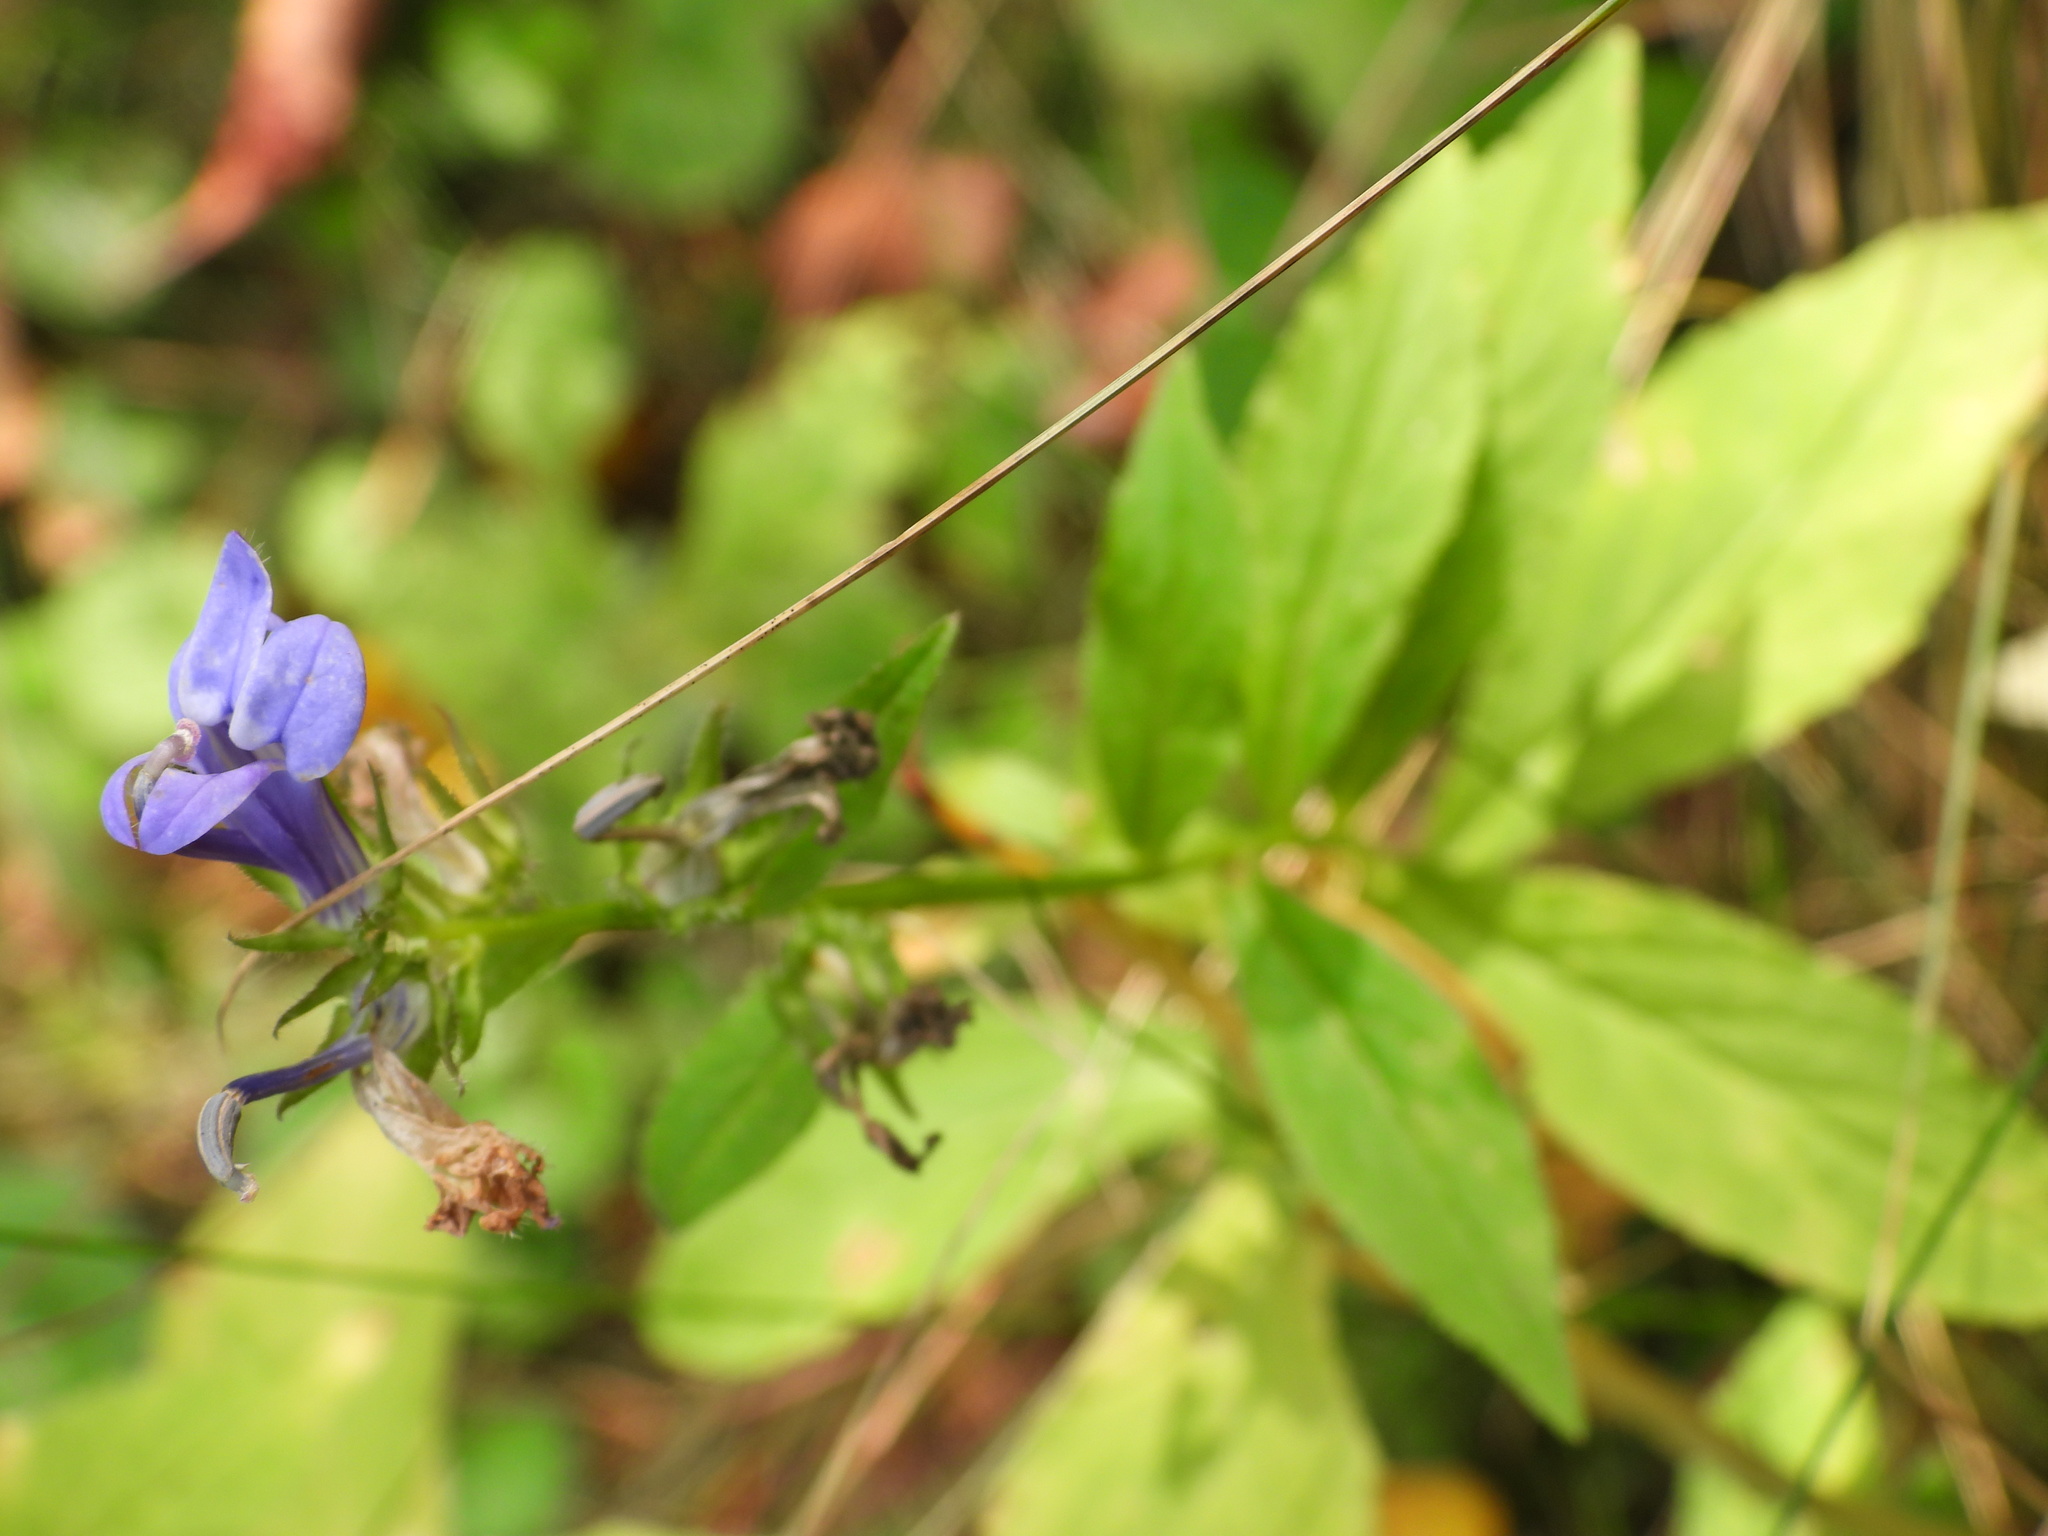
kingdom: Plantae
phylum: Tracheophyta
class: Magnoliopsida
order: Asterales
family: Campanulaceae
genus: Lobelia
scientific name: Lobelia siphilitica
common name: Great lobelia
